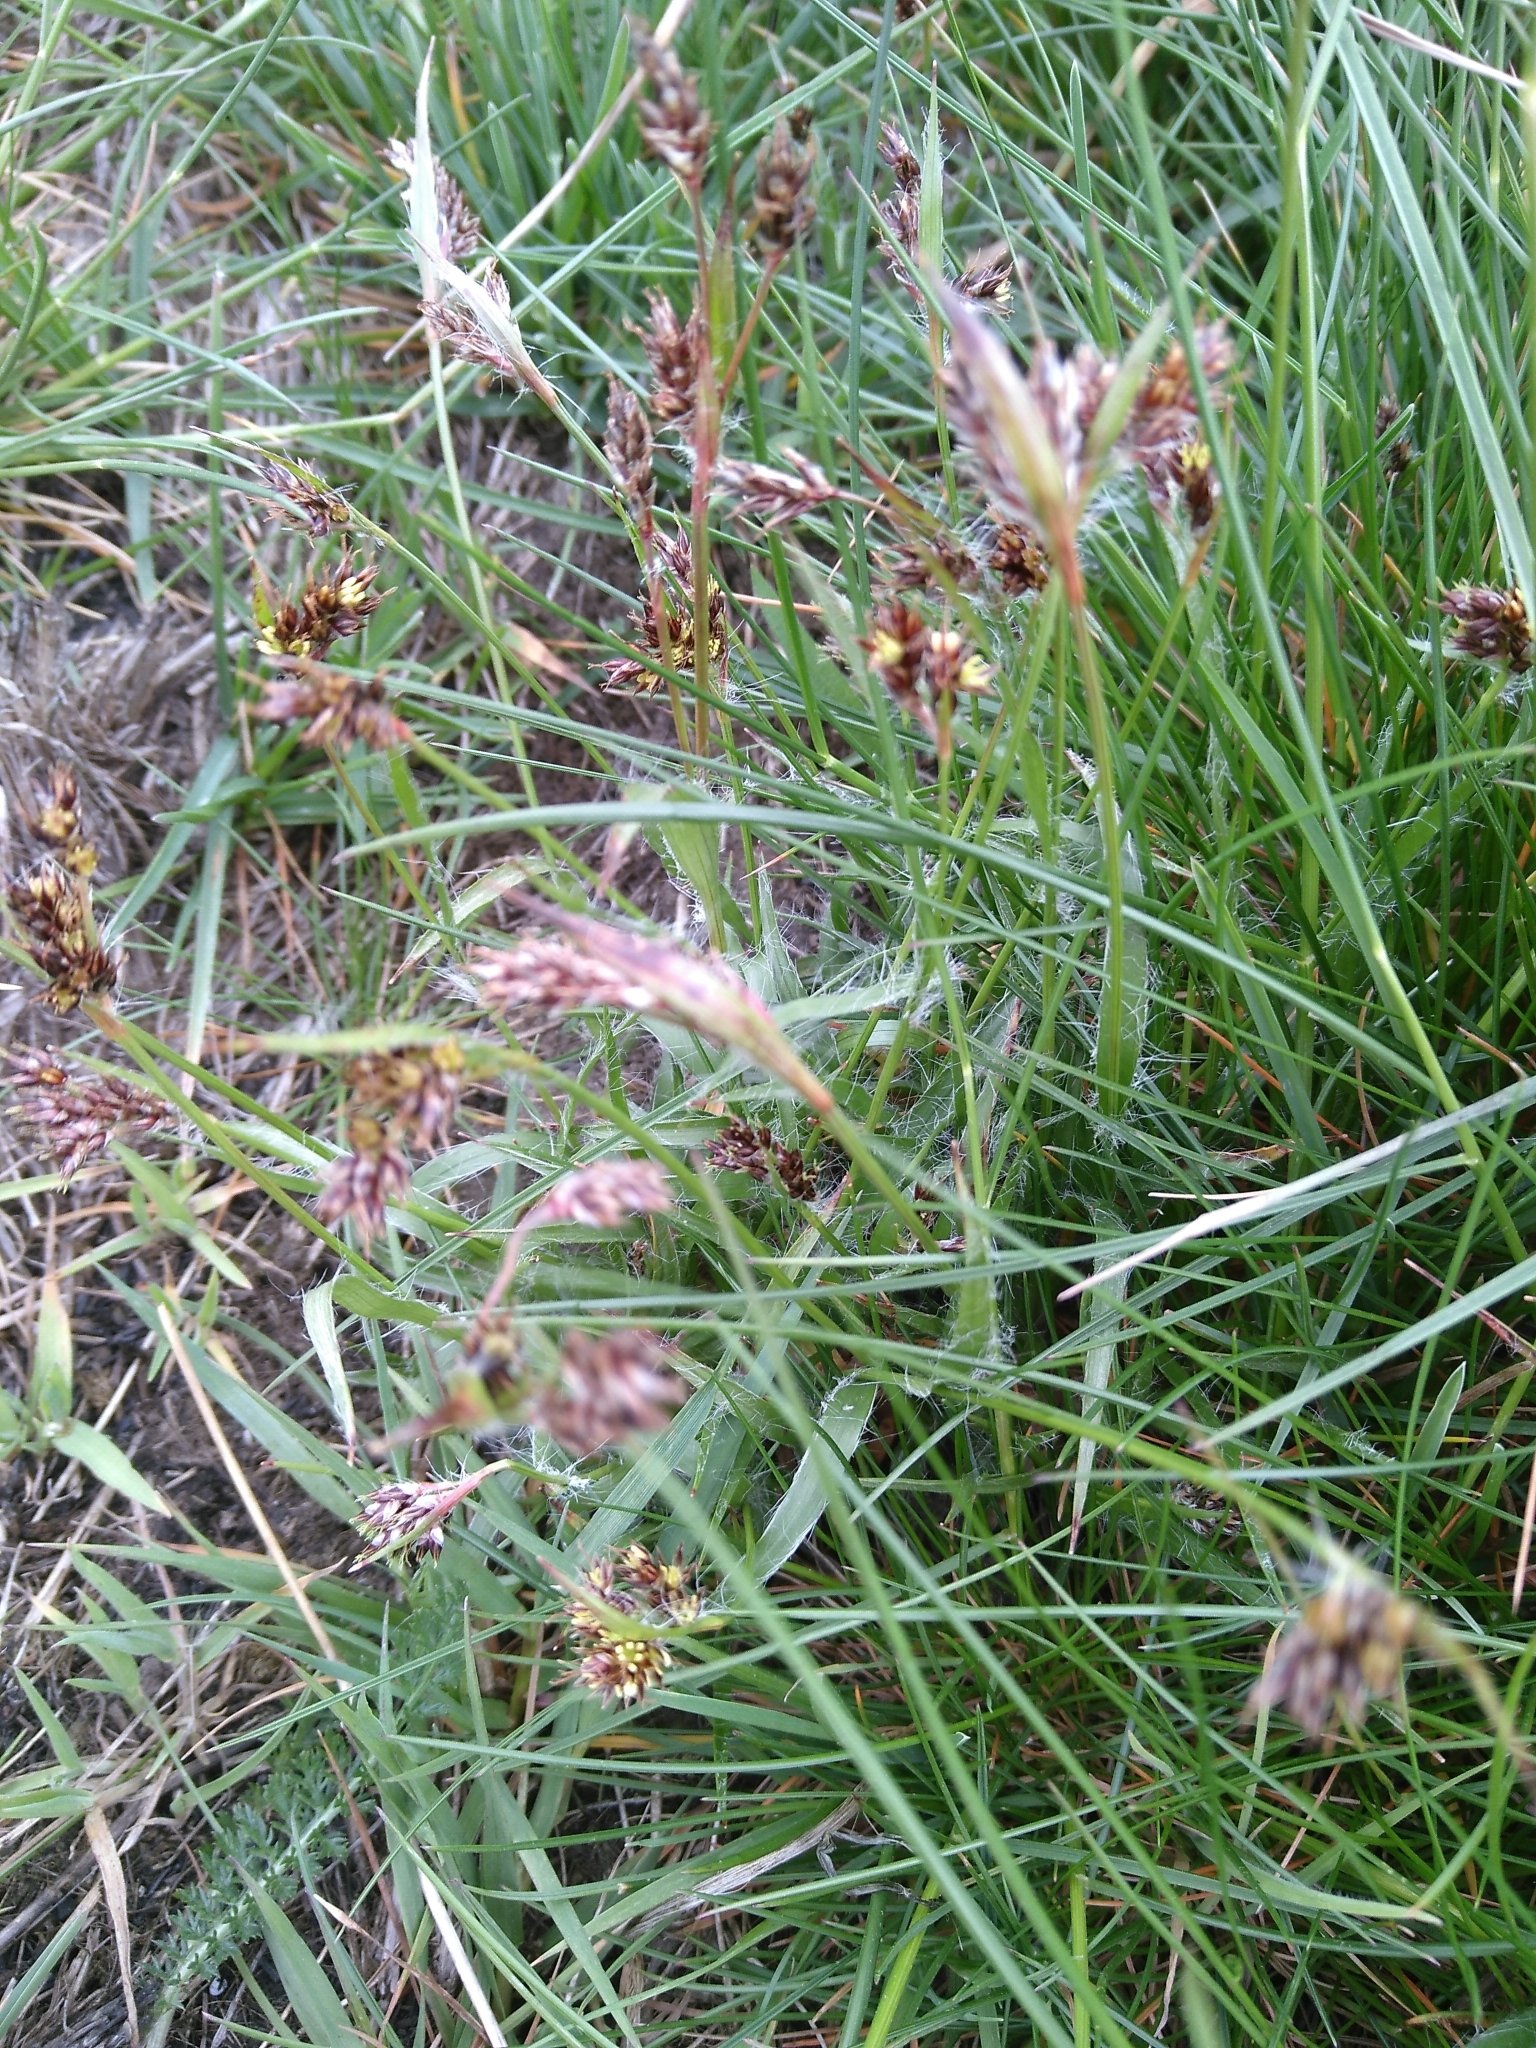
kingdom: Plantae
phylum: Tracheophyta
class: Liliopsida
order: Poales
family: Juncaceae
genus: Luzula
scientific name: Luzula campestris
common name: Field wood-rush
